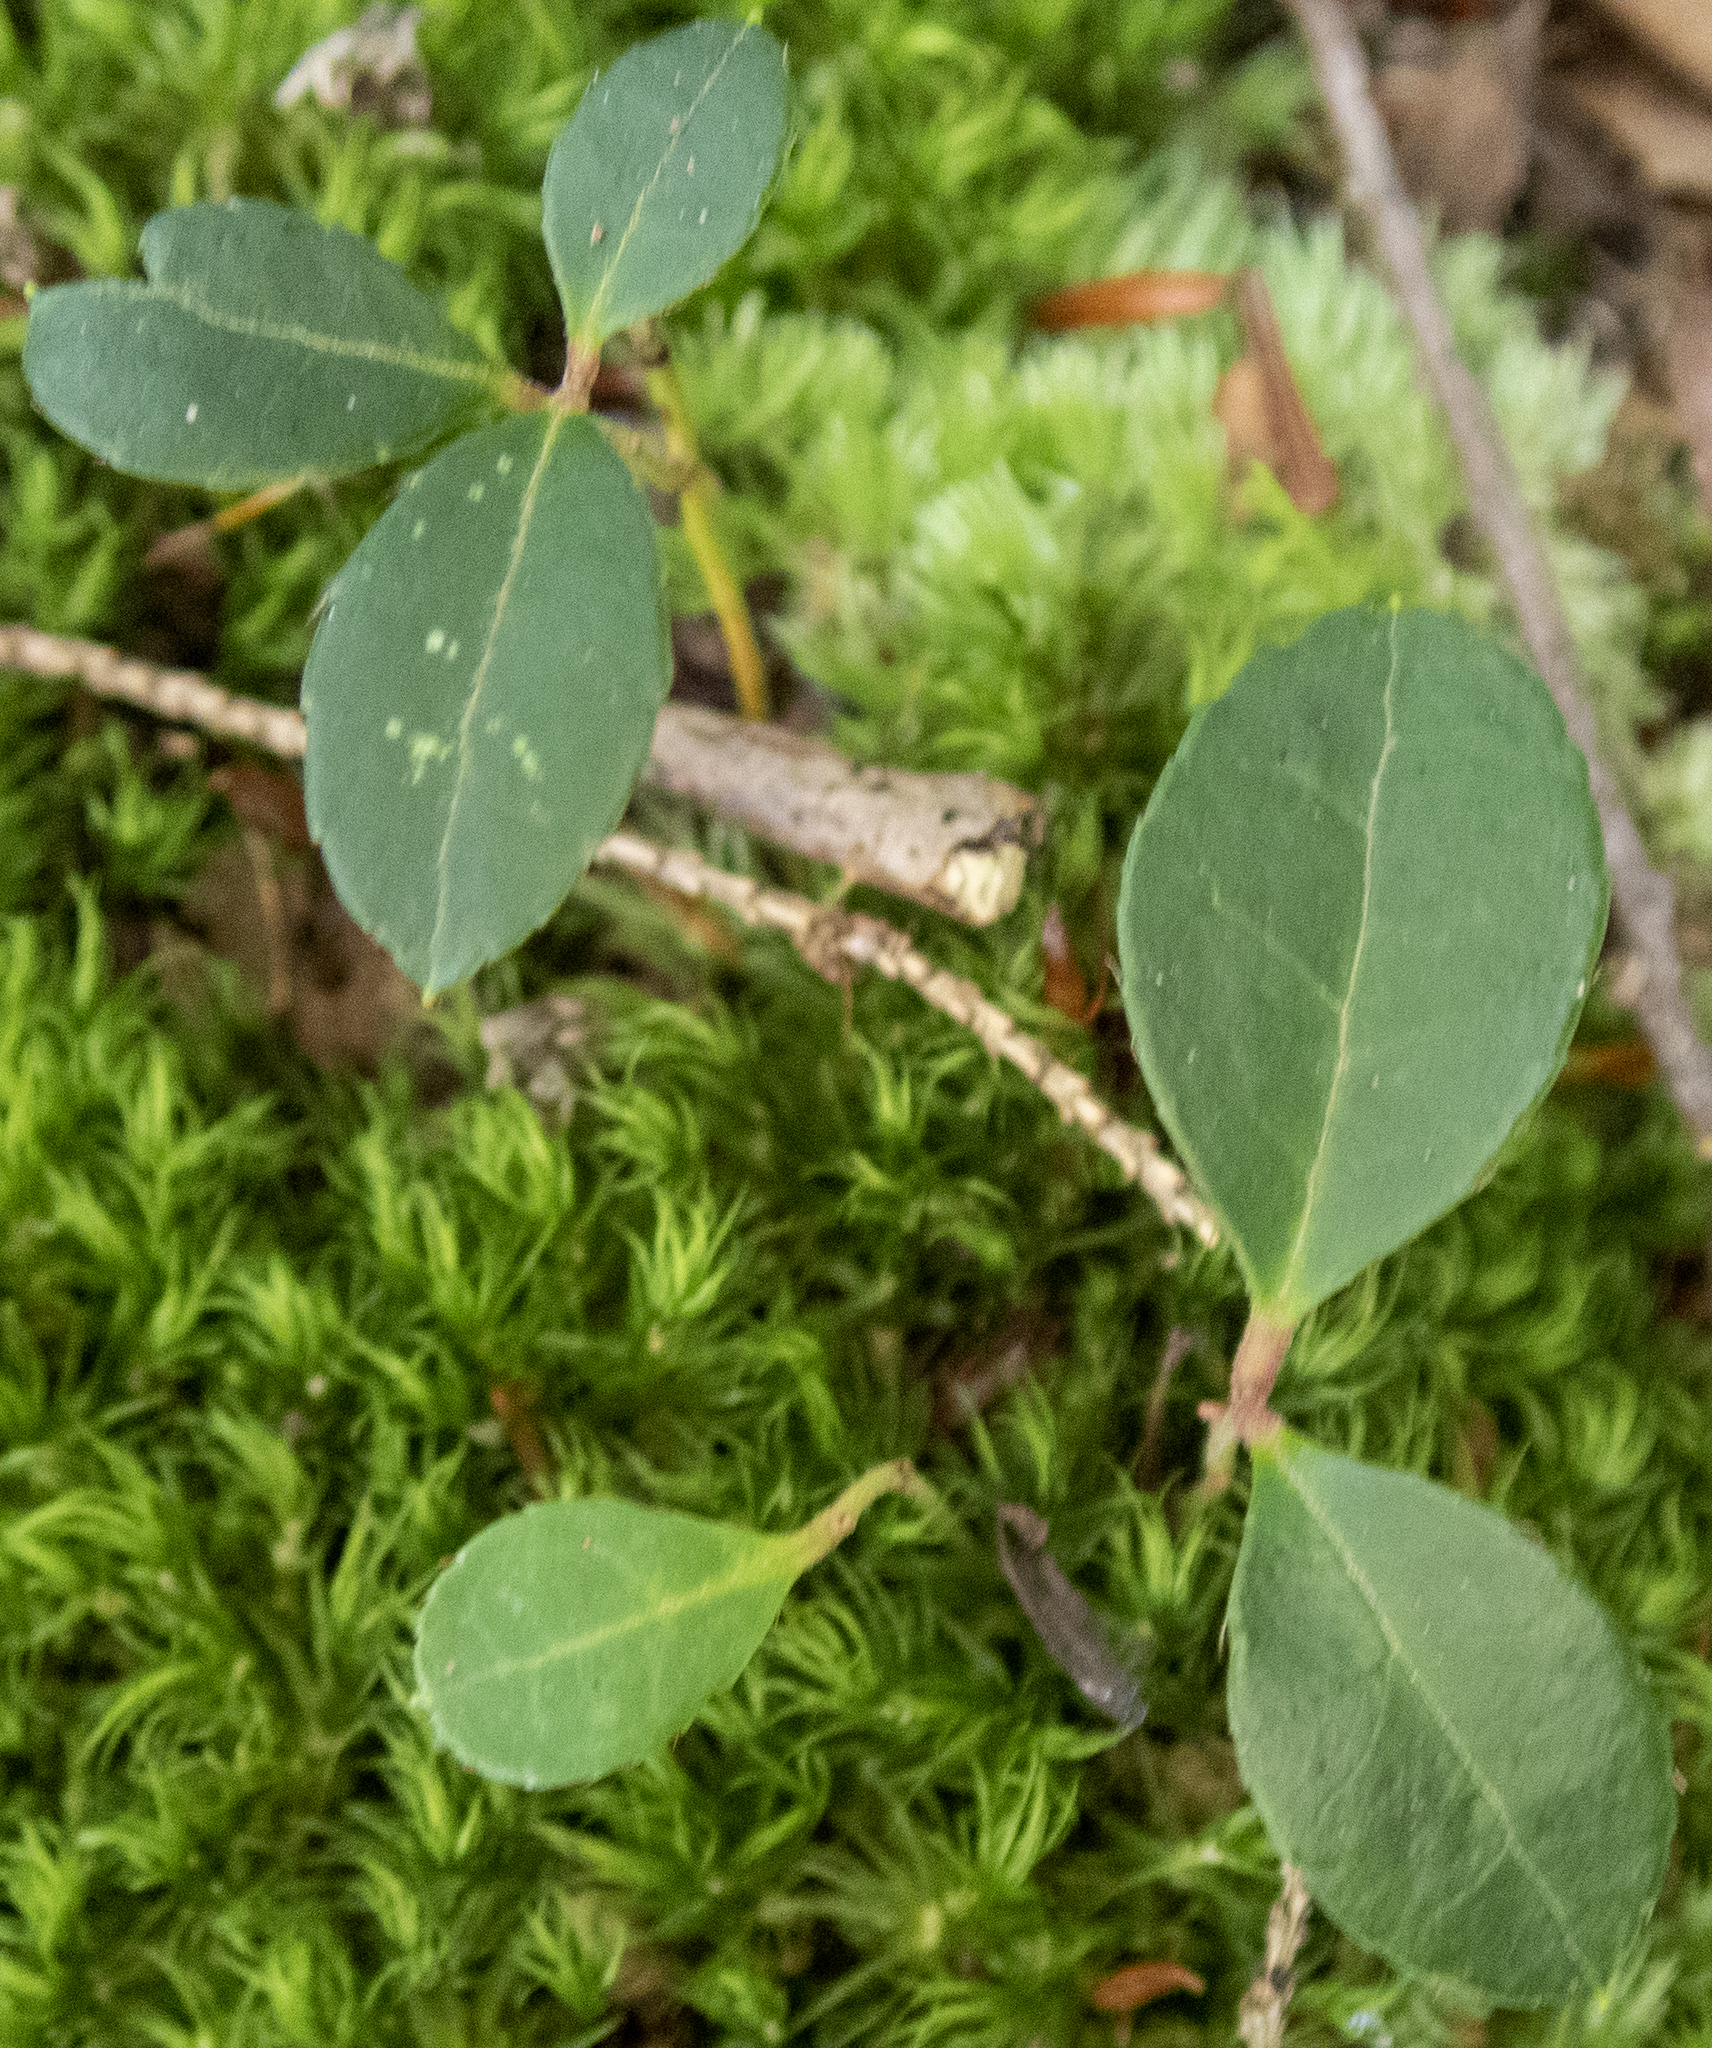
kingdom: Plantae
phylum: Tracheophyta
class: Magnoliopsida
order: Ericales
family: Ericaceae
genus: Gaultheria
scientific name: Gaultheria procumbens
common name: Checkerberry
